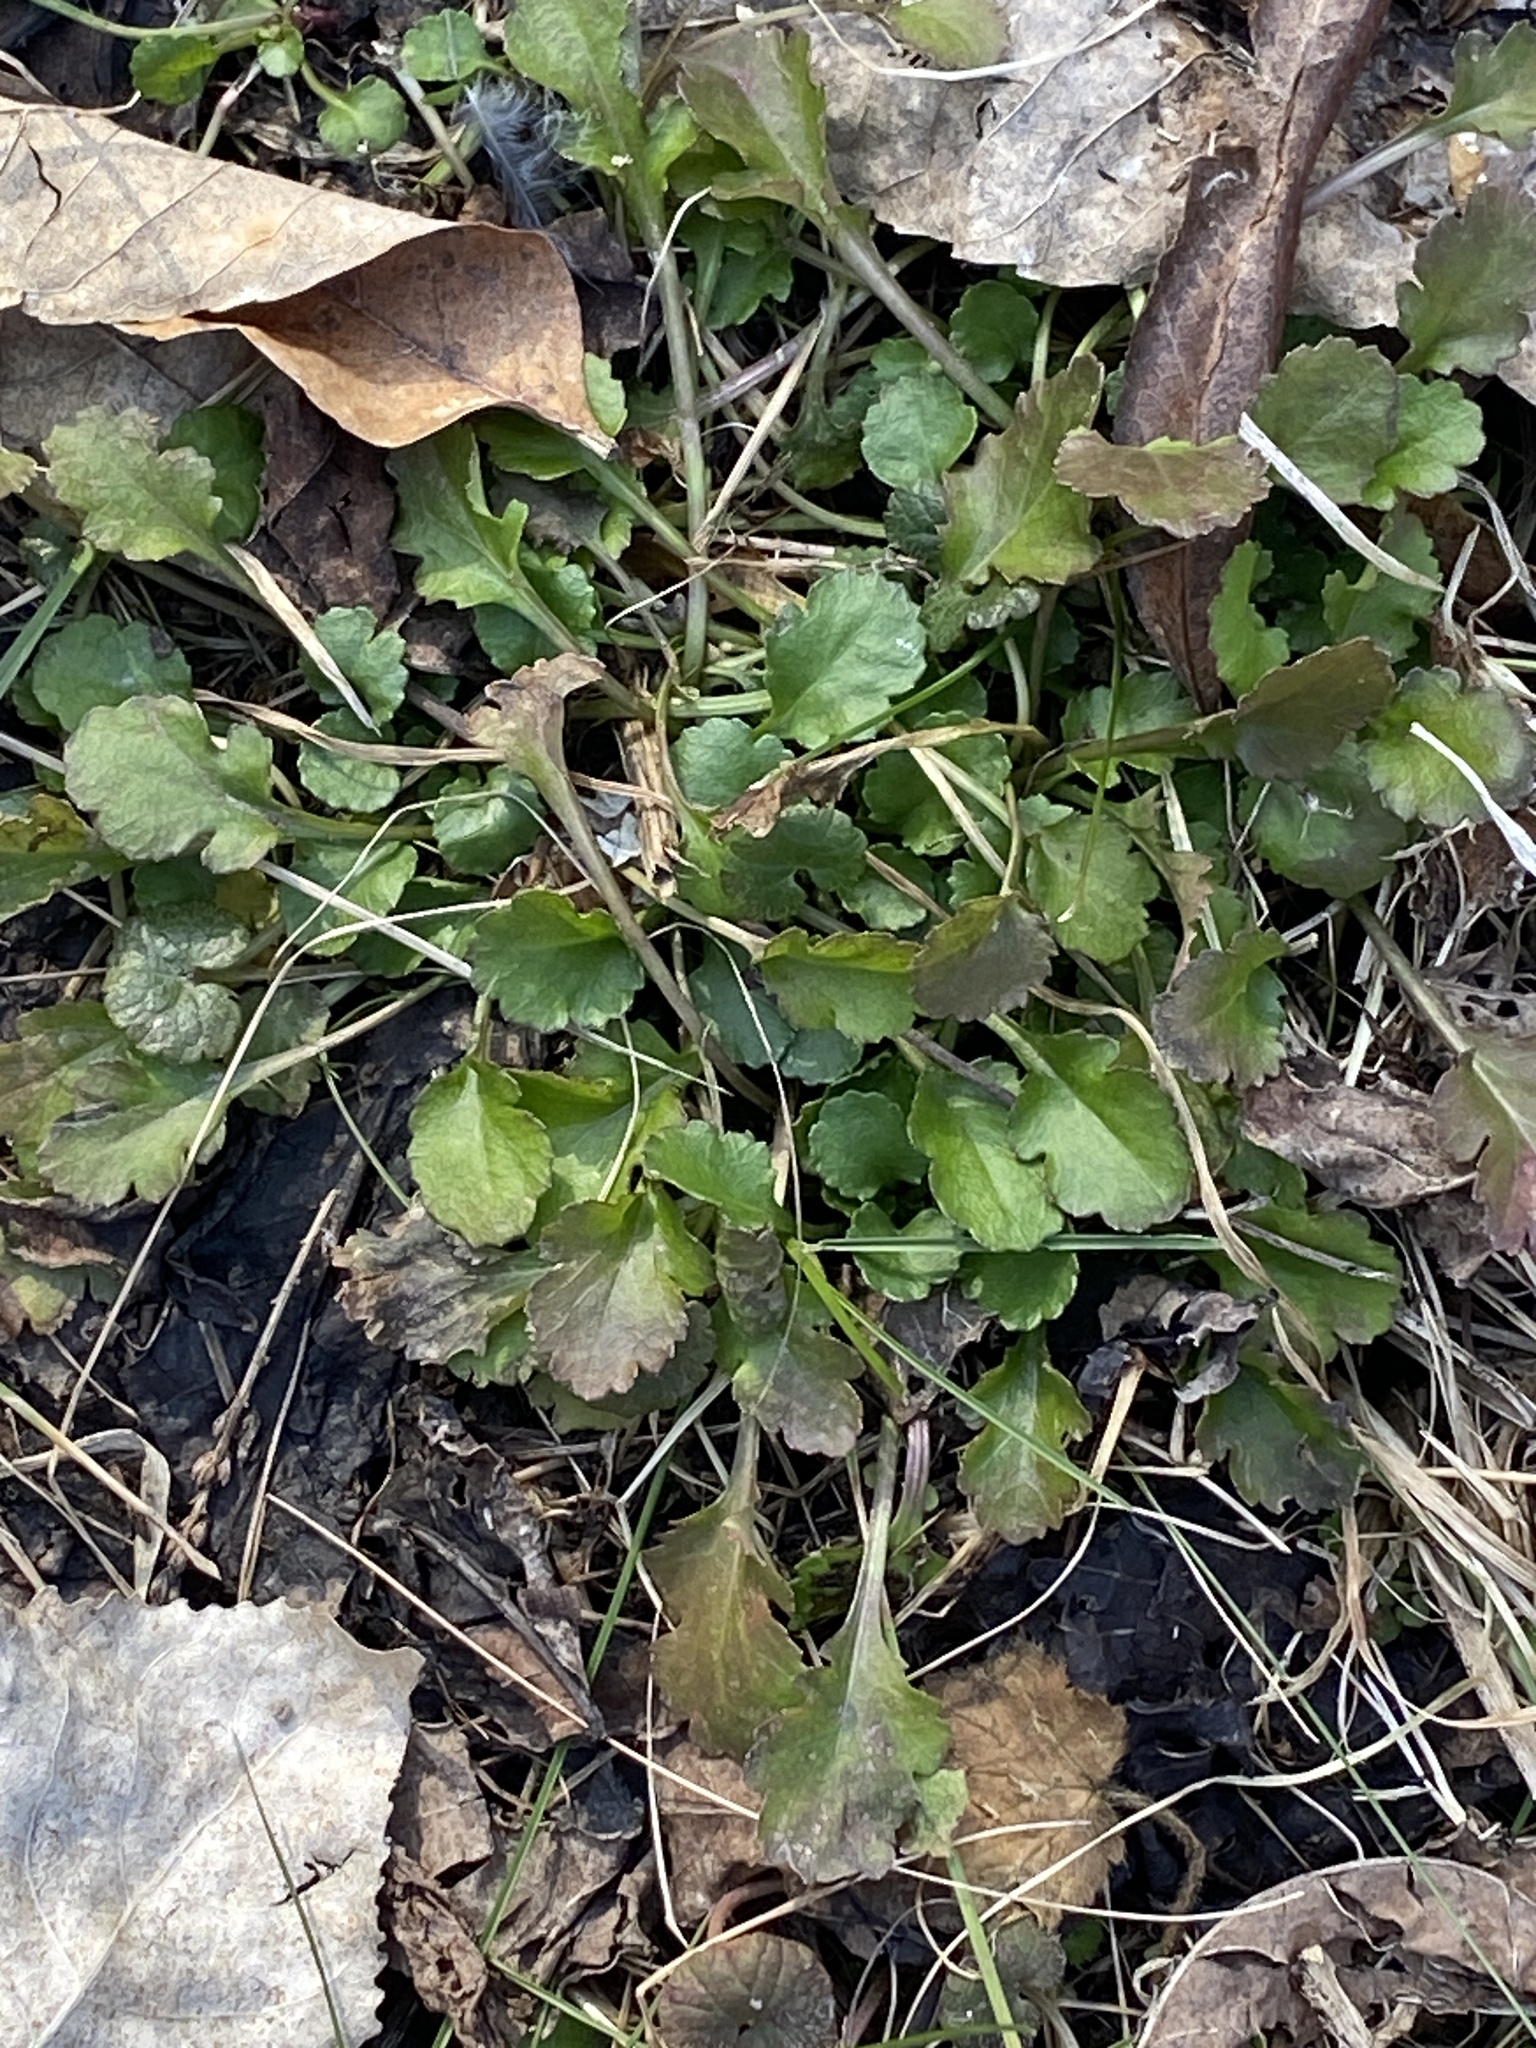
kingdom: Plantae
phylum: Tracheophyta
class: Magnoliopsida
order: Asterales
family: Asteraceae
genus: Leucanthemum
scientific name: Leucanthemum vulgare
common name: Oxeye daisy
